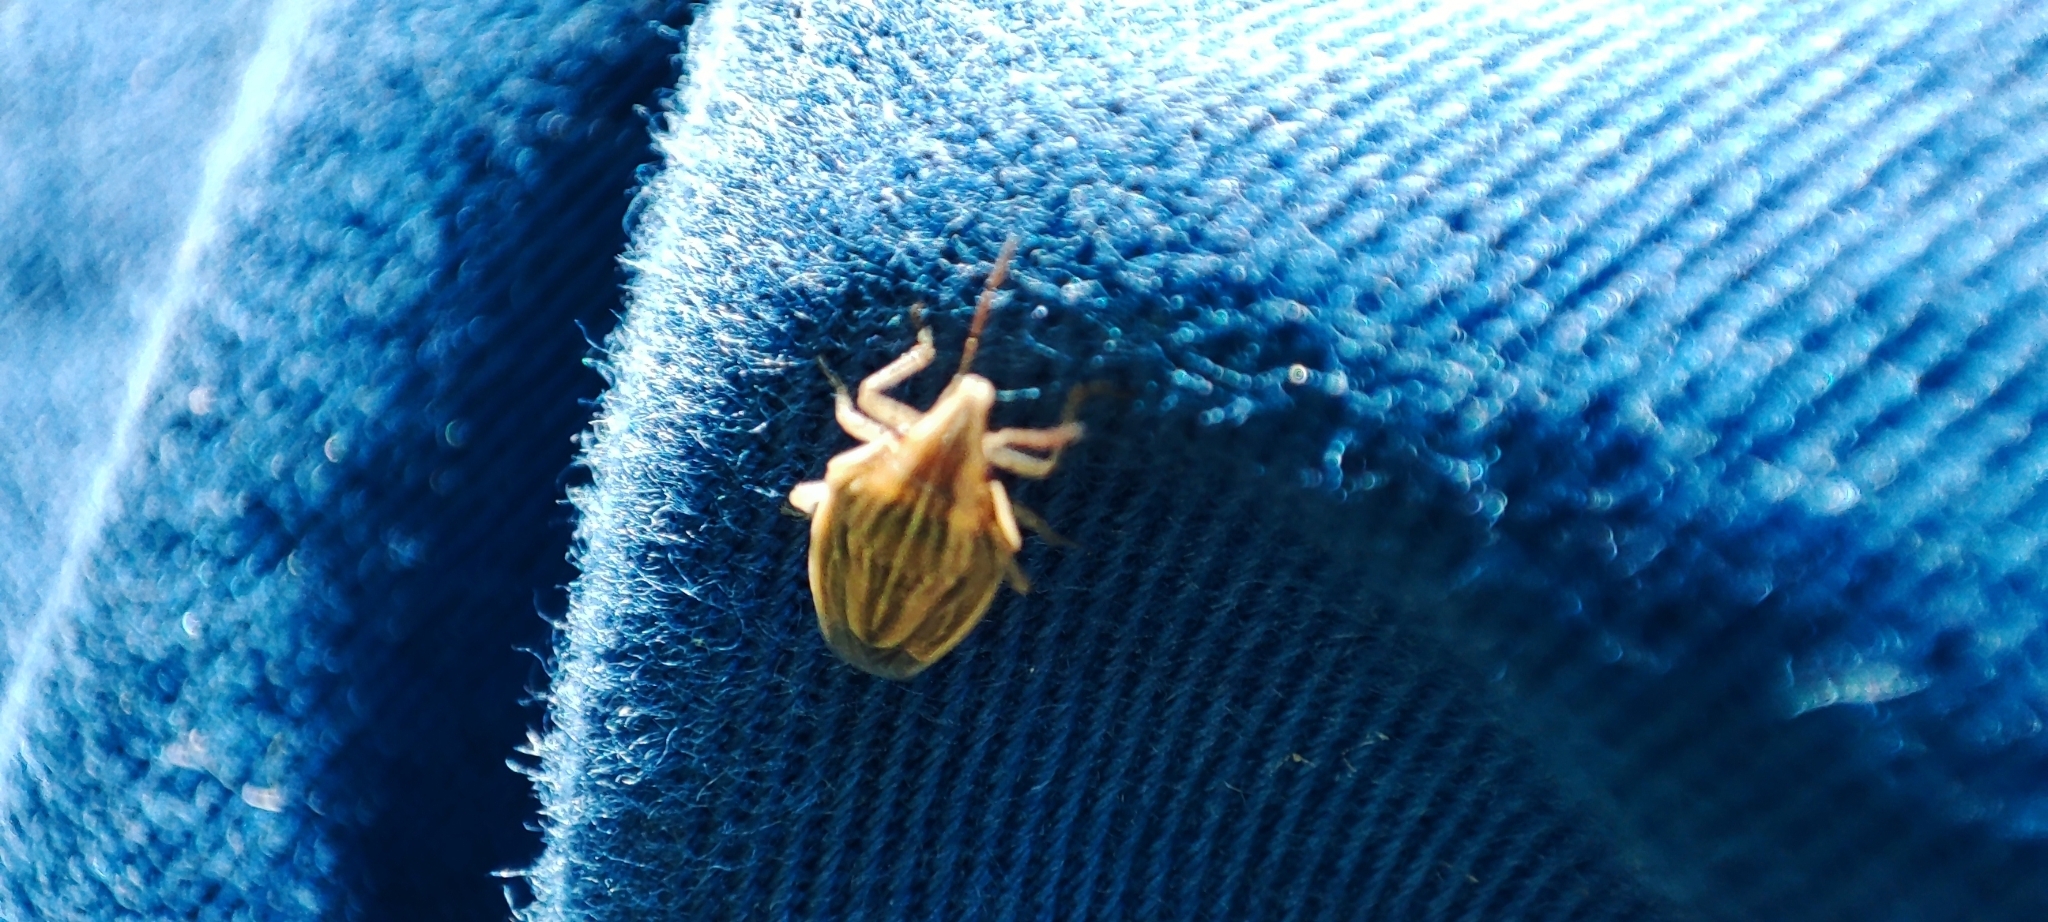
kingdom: Animalia
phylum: Arthropoda
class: Insecta
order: Hemiptera
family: Pentatomidae
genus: Aelia
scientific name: Aelia acuminata
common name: Bishop's mitre
